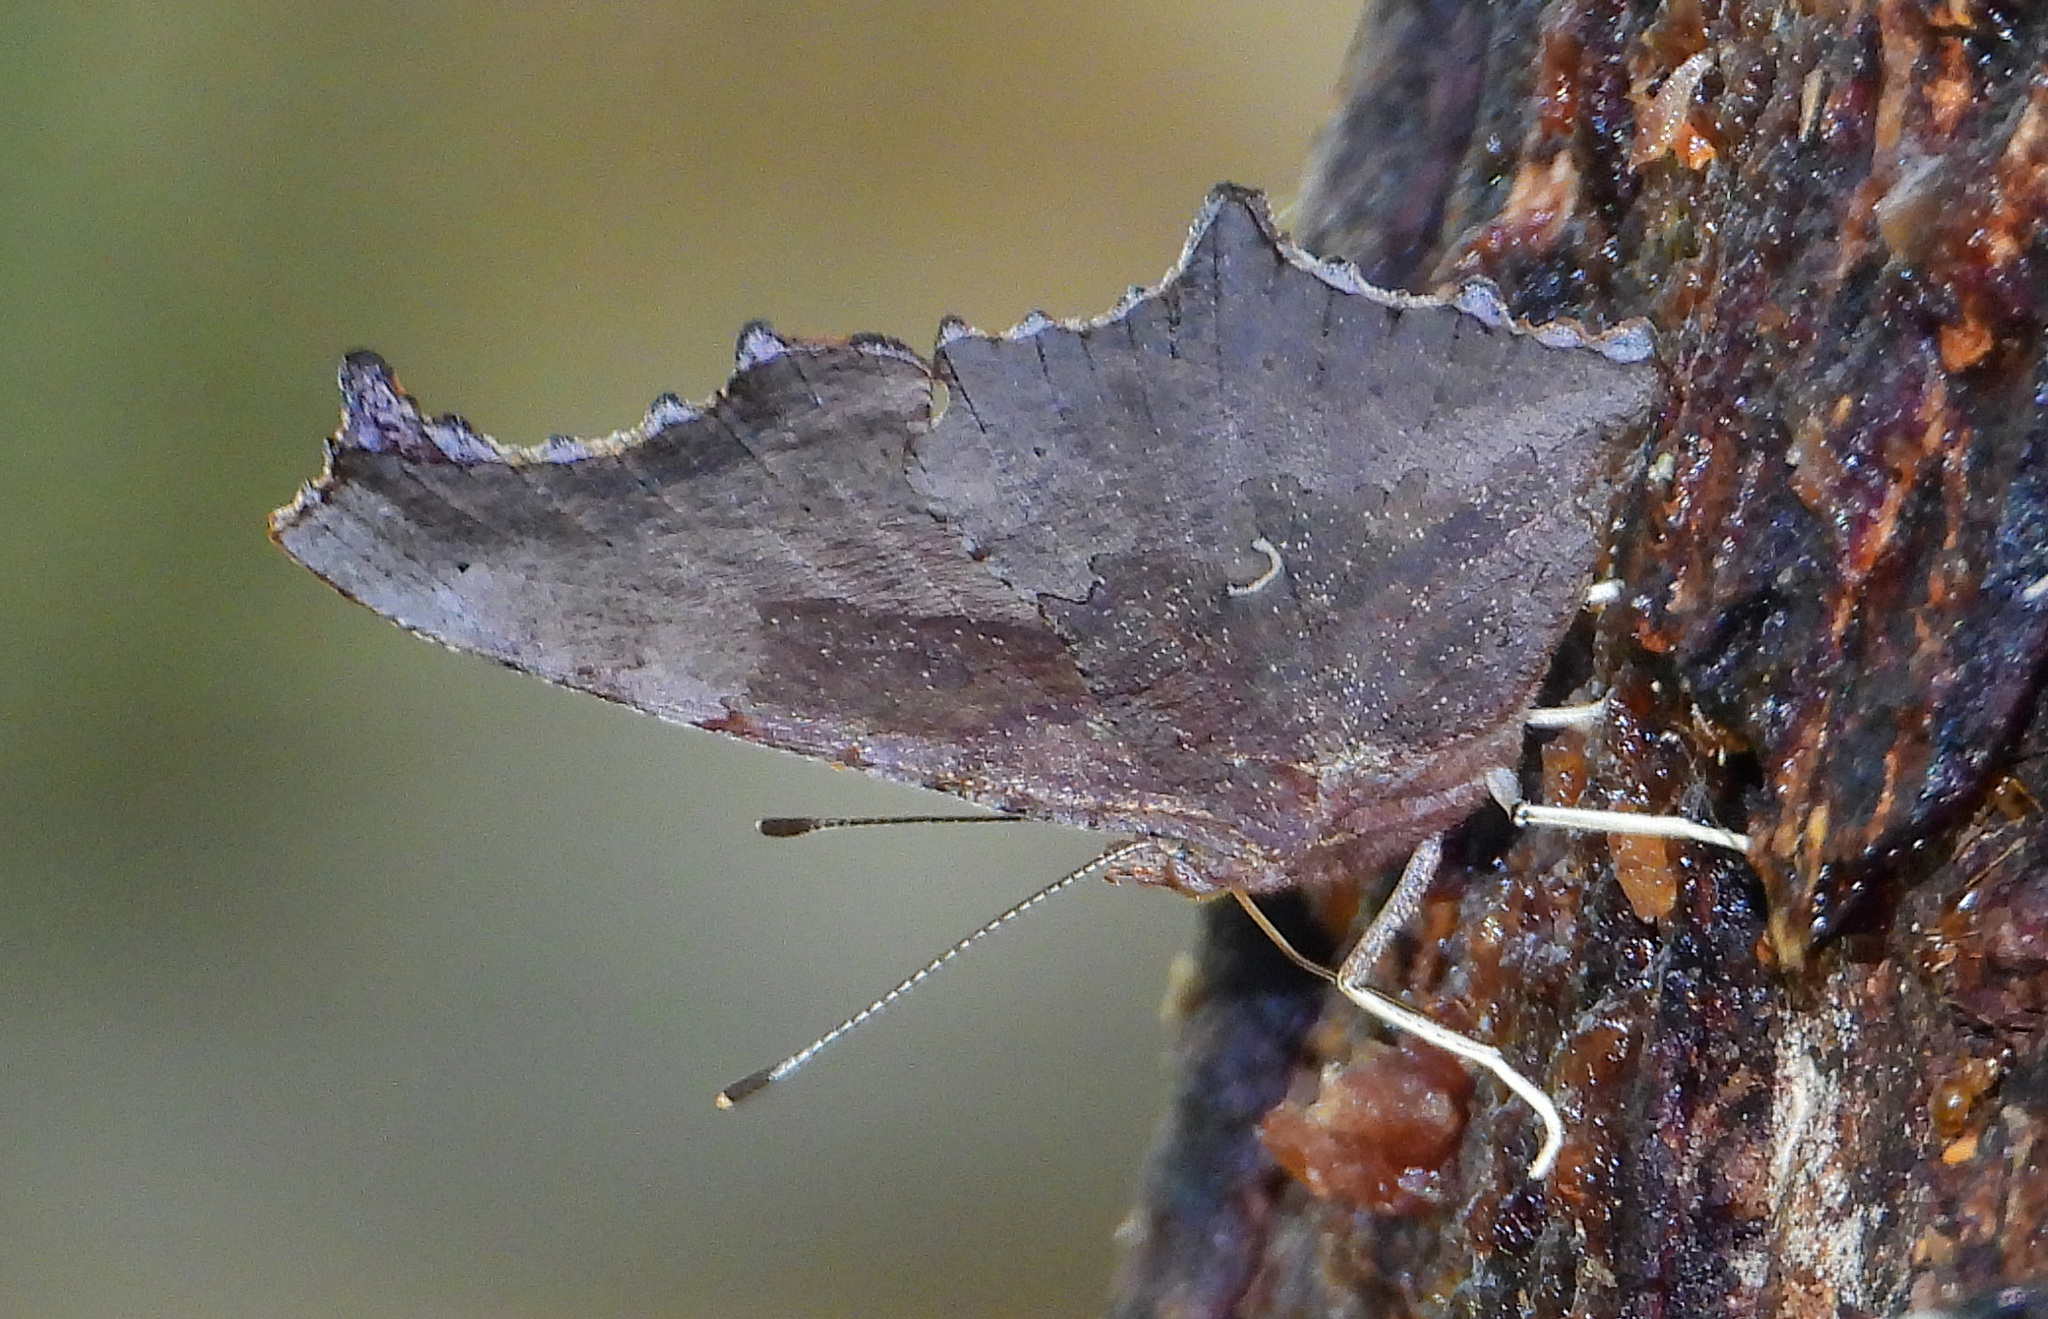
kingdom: Animalia
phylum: Arthropoda
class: Insecta
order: Lepidoptera
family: Nymphalidae
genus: Polygonia
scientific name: Polygonia comma
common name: Eastern comma
